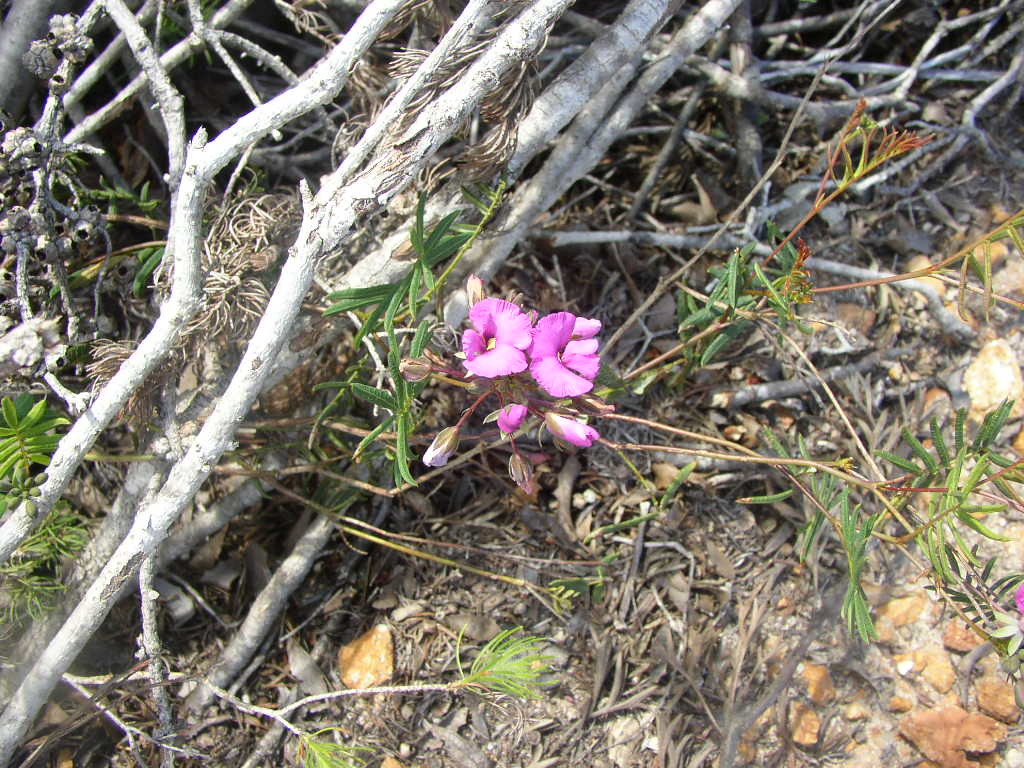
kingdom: Plantae
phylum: Tracheophyta
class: Magnoliopsida
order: Fabales
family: Fabaceae
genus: Gompholobium
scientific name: Gompholobium knightianum
